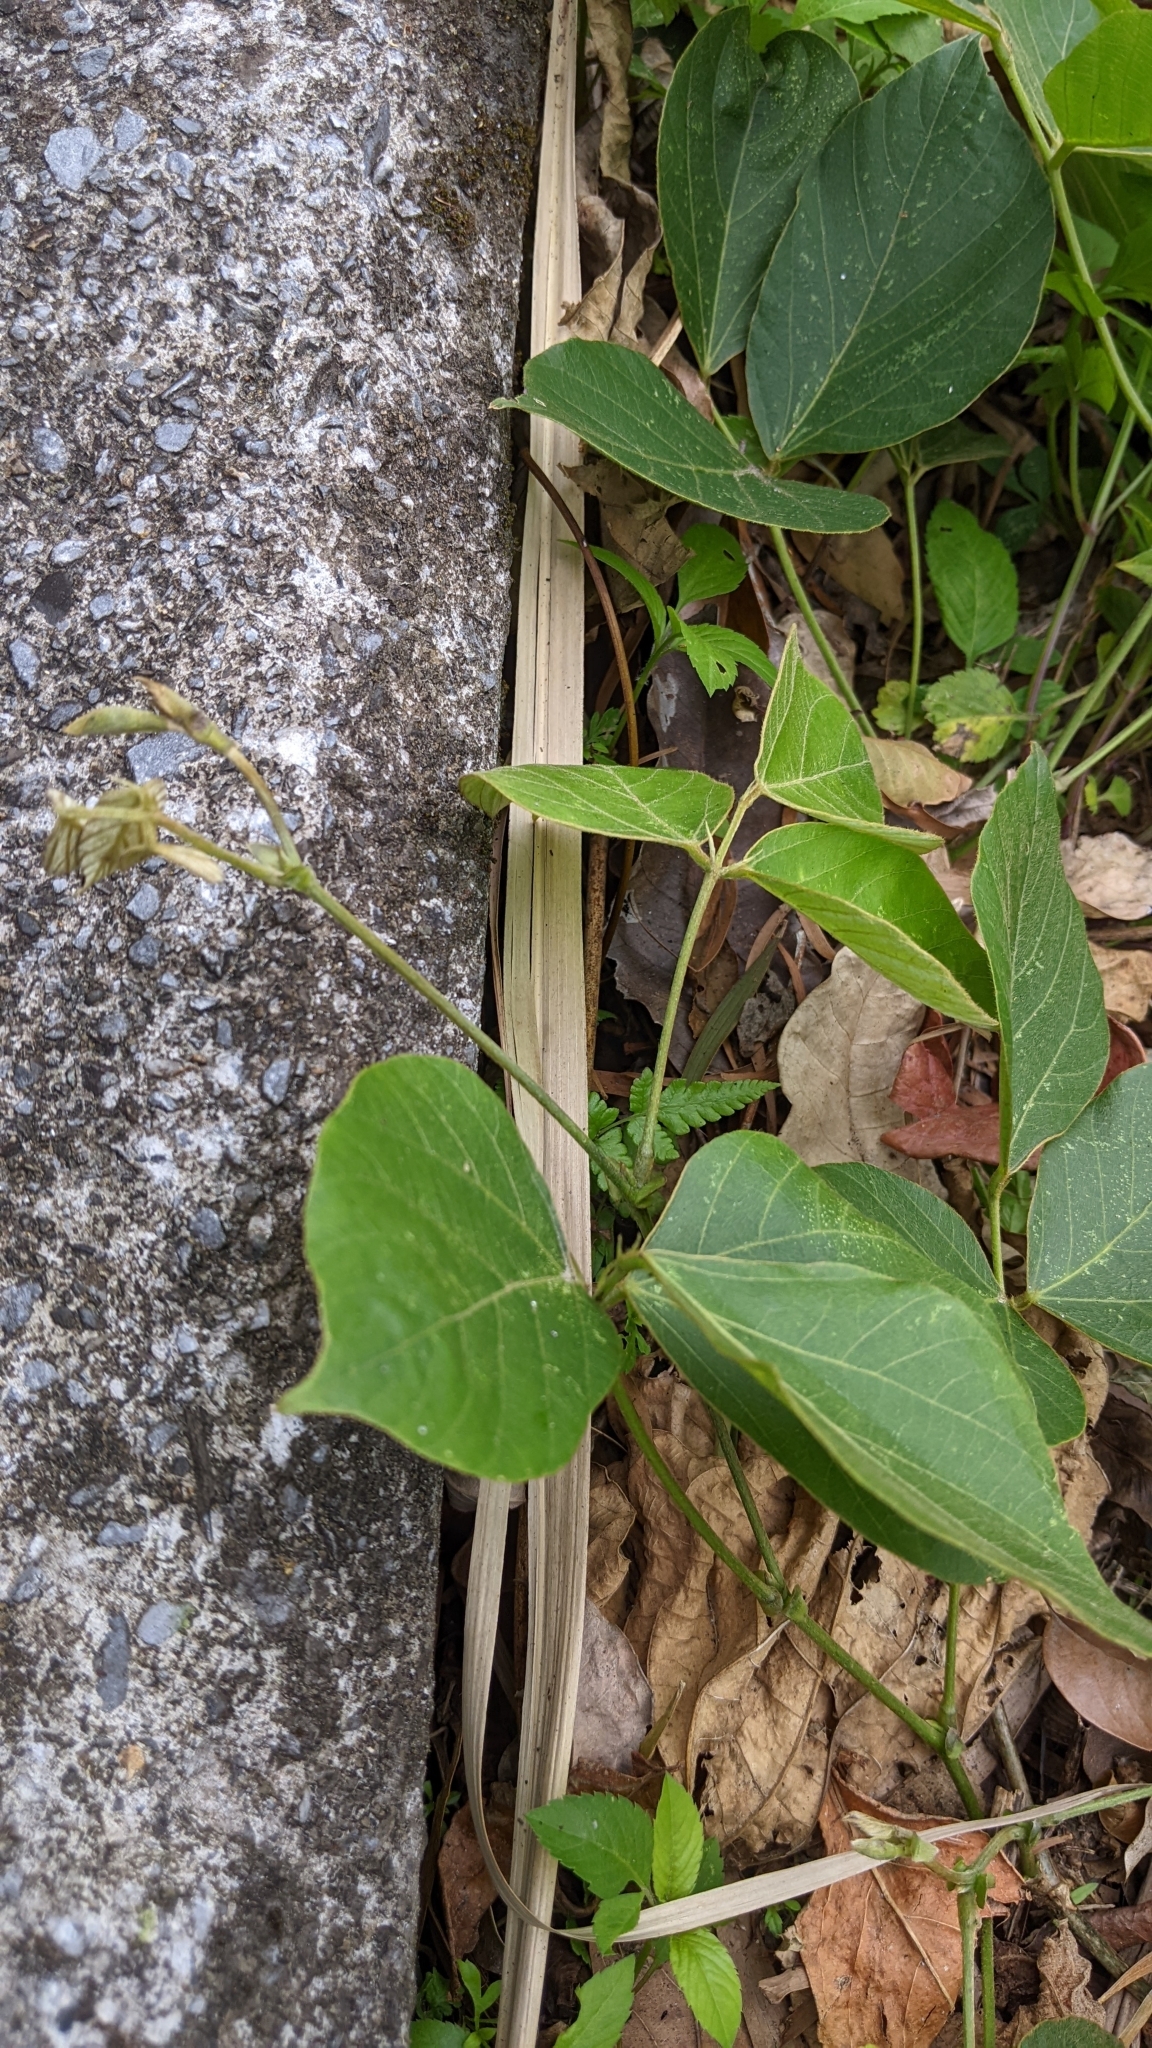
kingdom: Plantae
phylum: Tracheophyta
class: Magnoliopsida
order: Fabales
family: Fabaceae
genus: Pueraria
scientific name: Pueraria montana
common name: Kudzu
